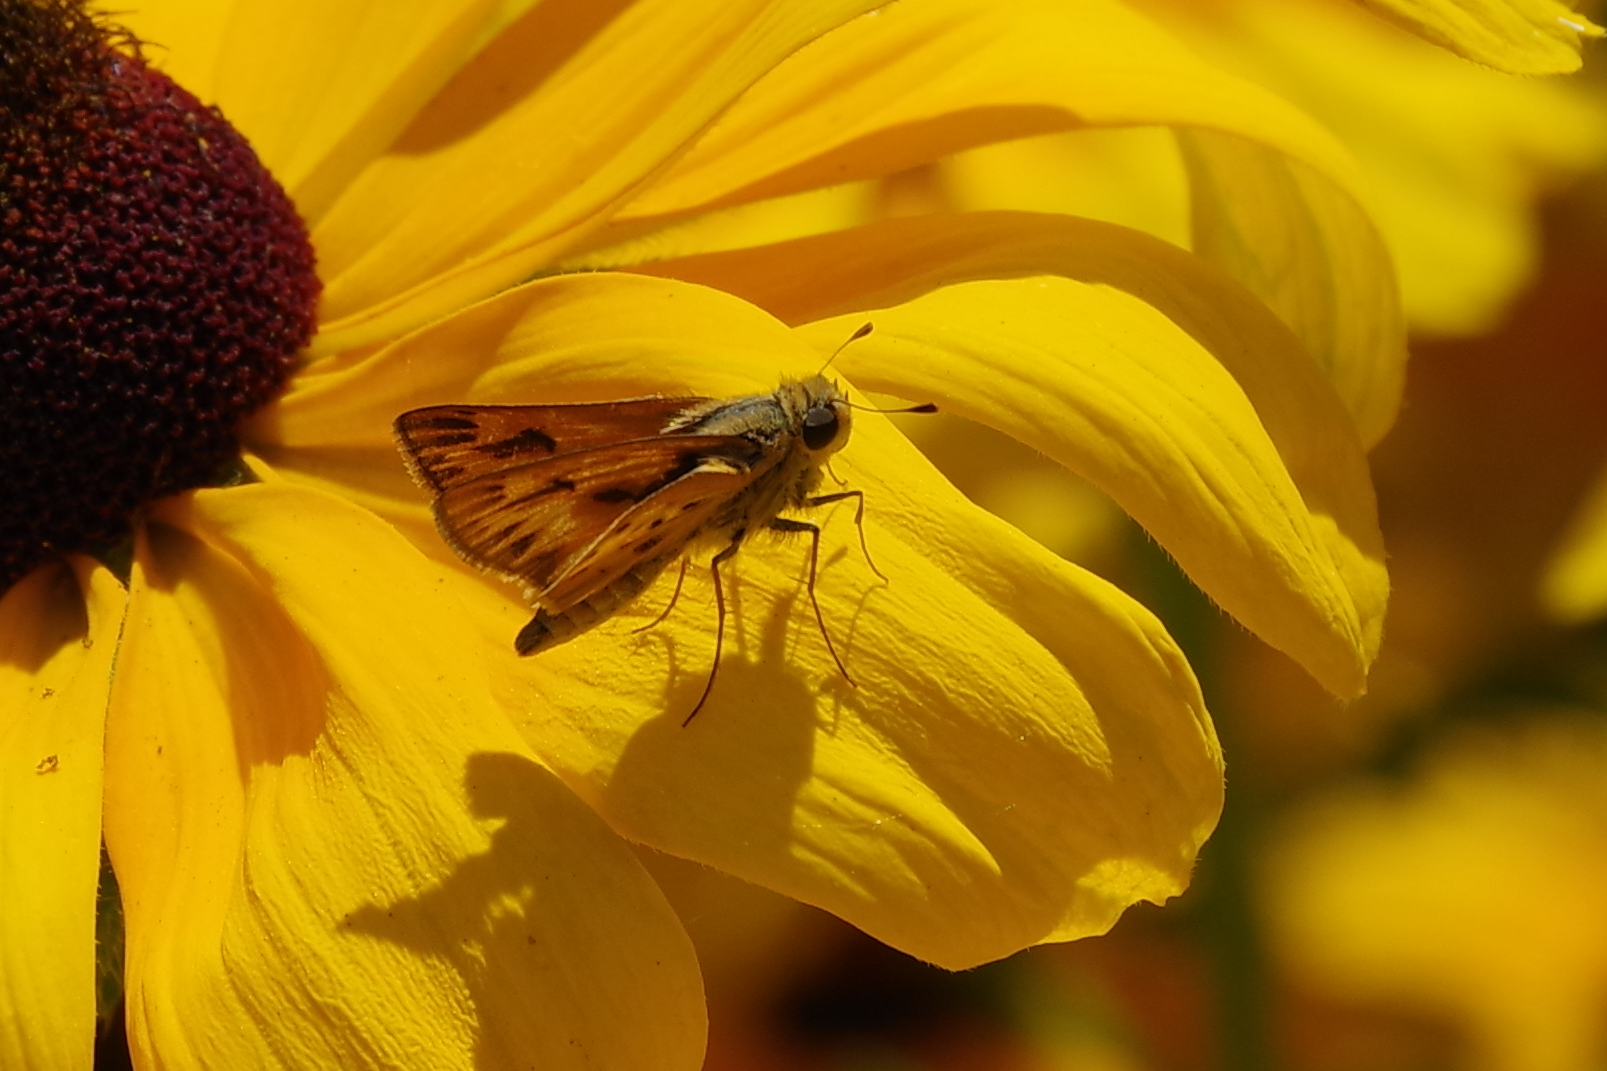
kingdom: Animalia
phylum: Arthropoda
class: Insecta
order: Lepidoptera
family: Hesperiidae
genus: Hylephila
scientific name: Hylephila phyleus
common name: Fiery skipper
